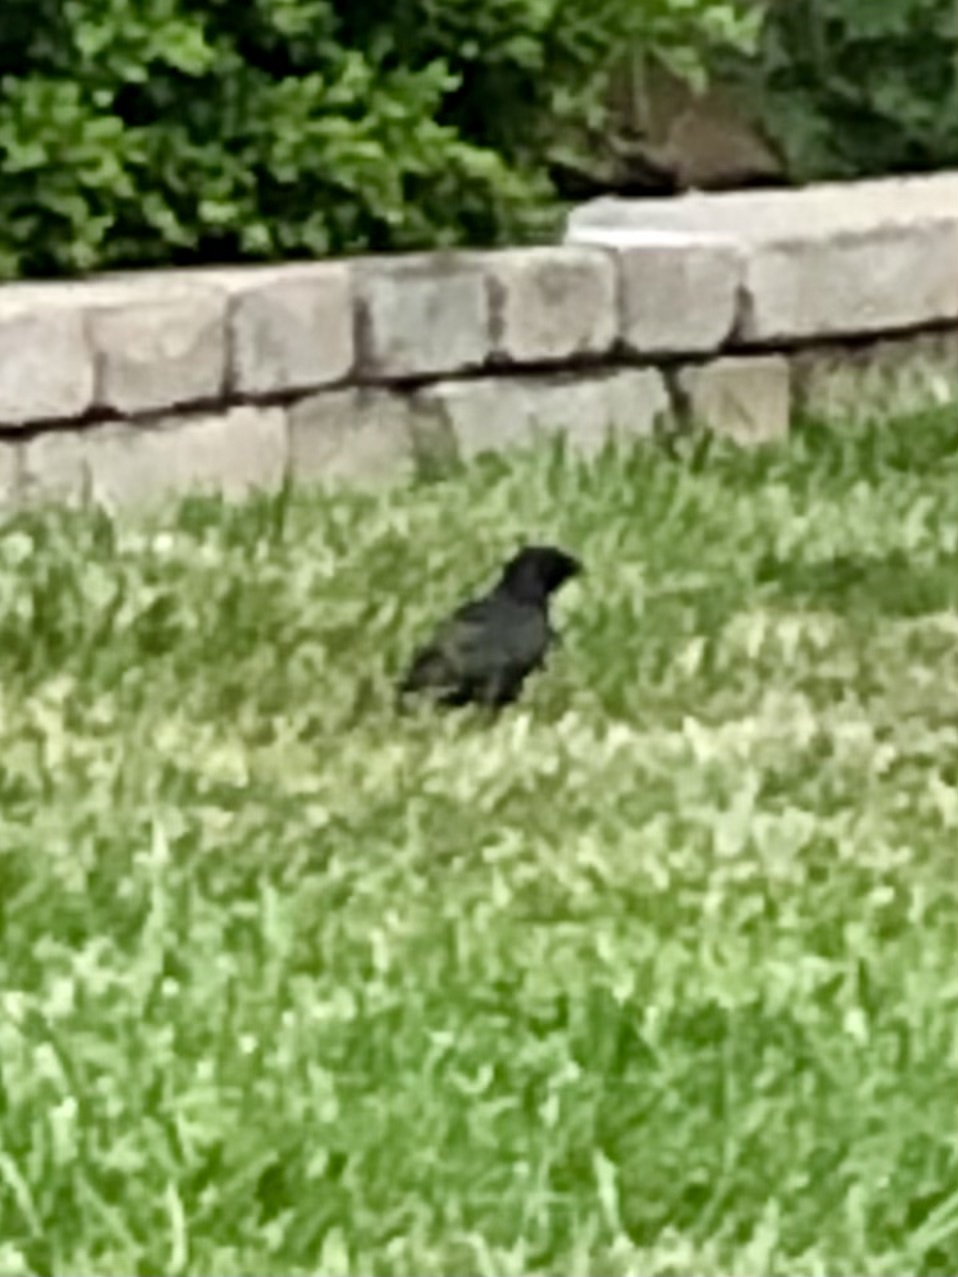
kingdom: Animalia
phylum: Chordata
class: Aves
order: Passeriformes
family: Sturnidae
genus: Sturnus
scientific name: Sturnus vulgaris
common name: Common starling
